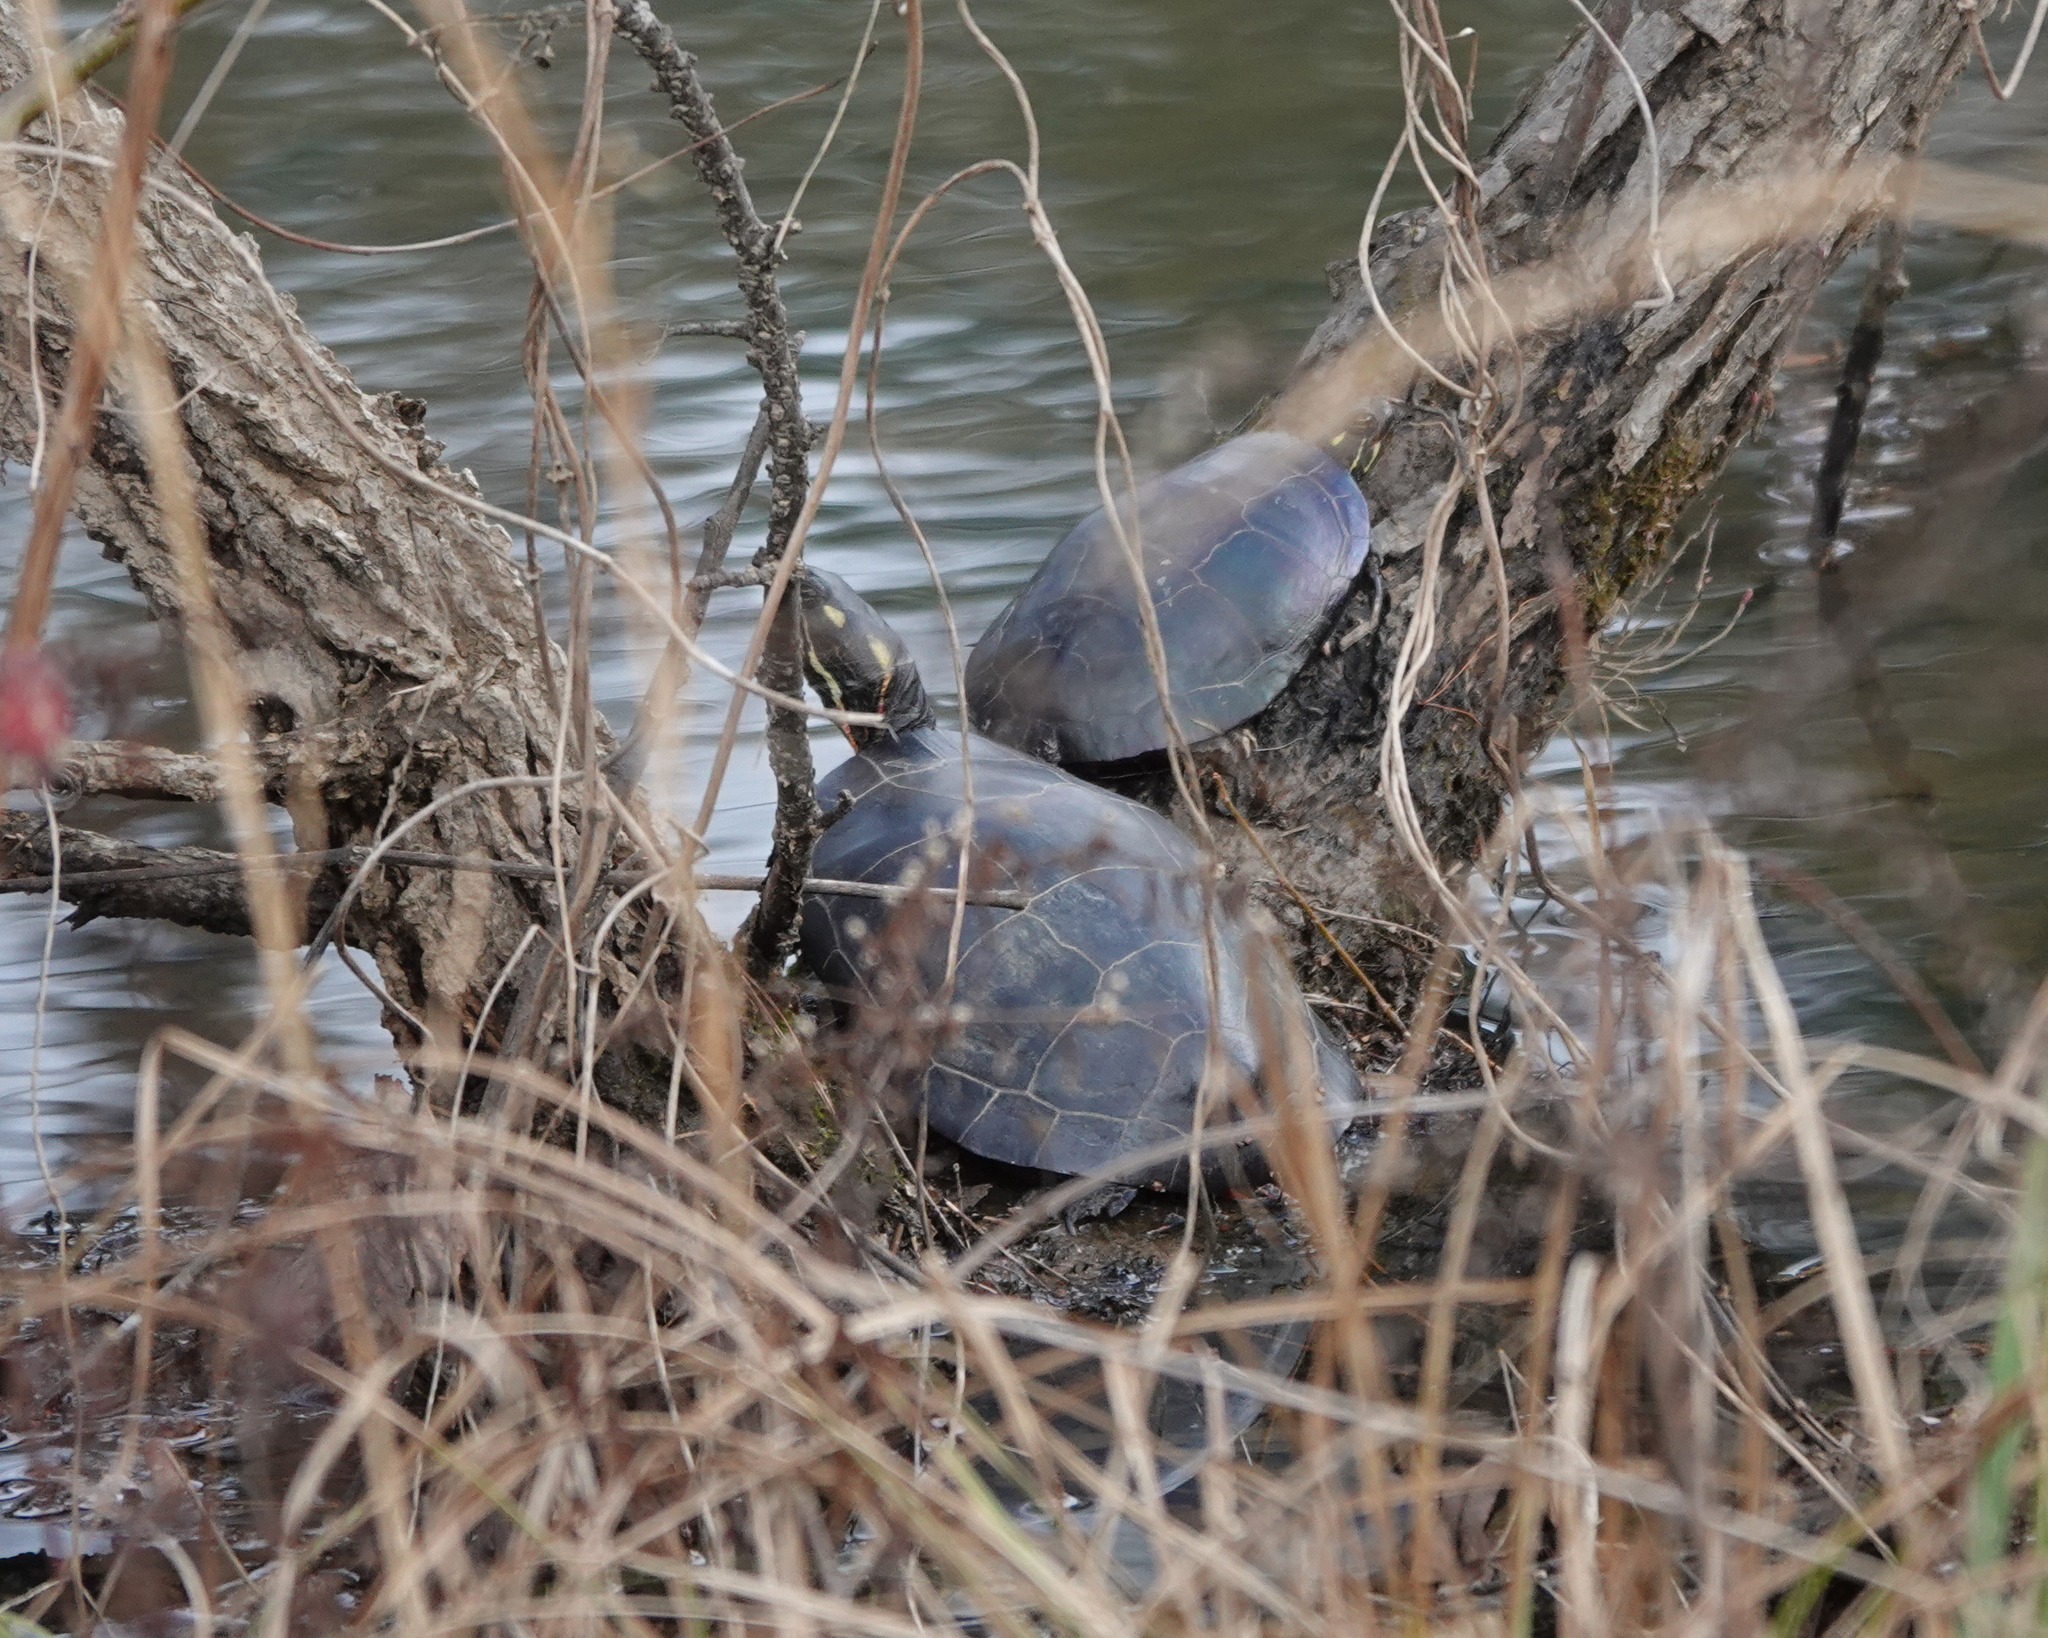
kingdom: Animalia
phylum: Chordata
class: Testudines
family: Emydidae
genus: Chrysemys
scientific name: Chrysemys picta
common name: Painted turtle
